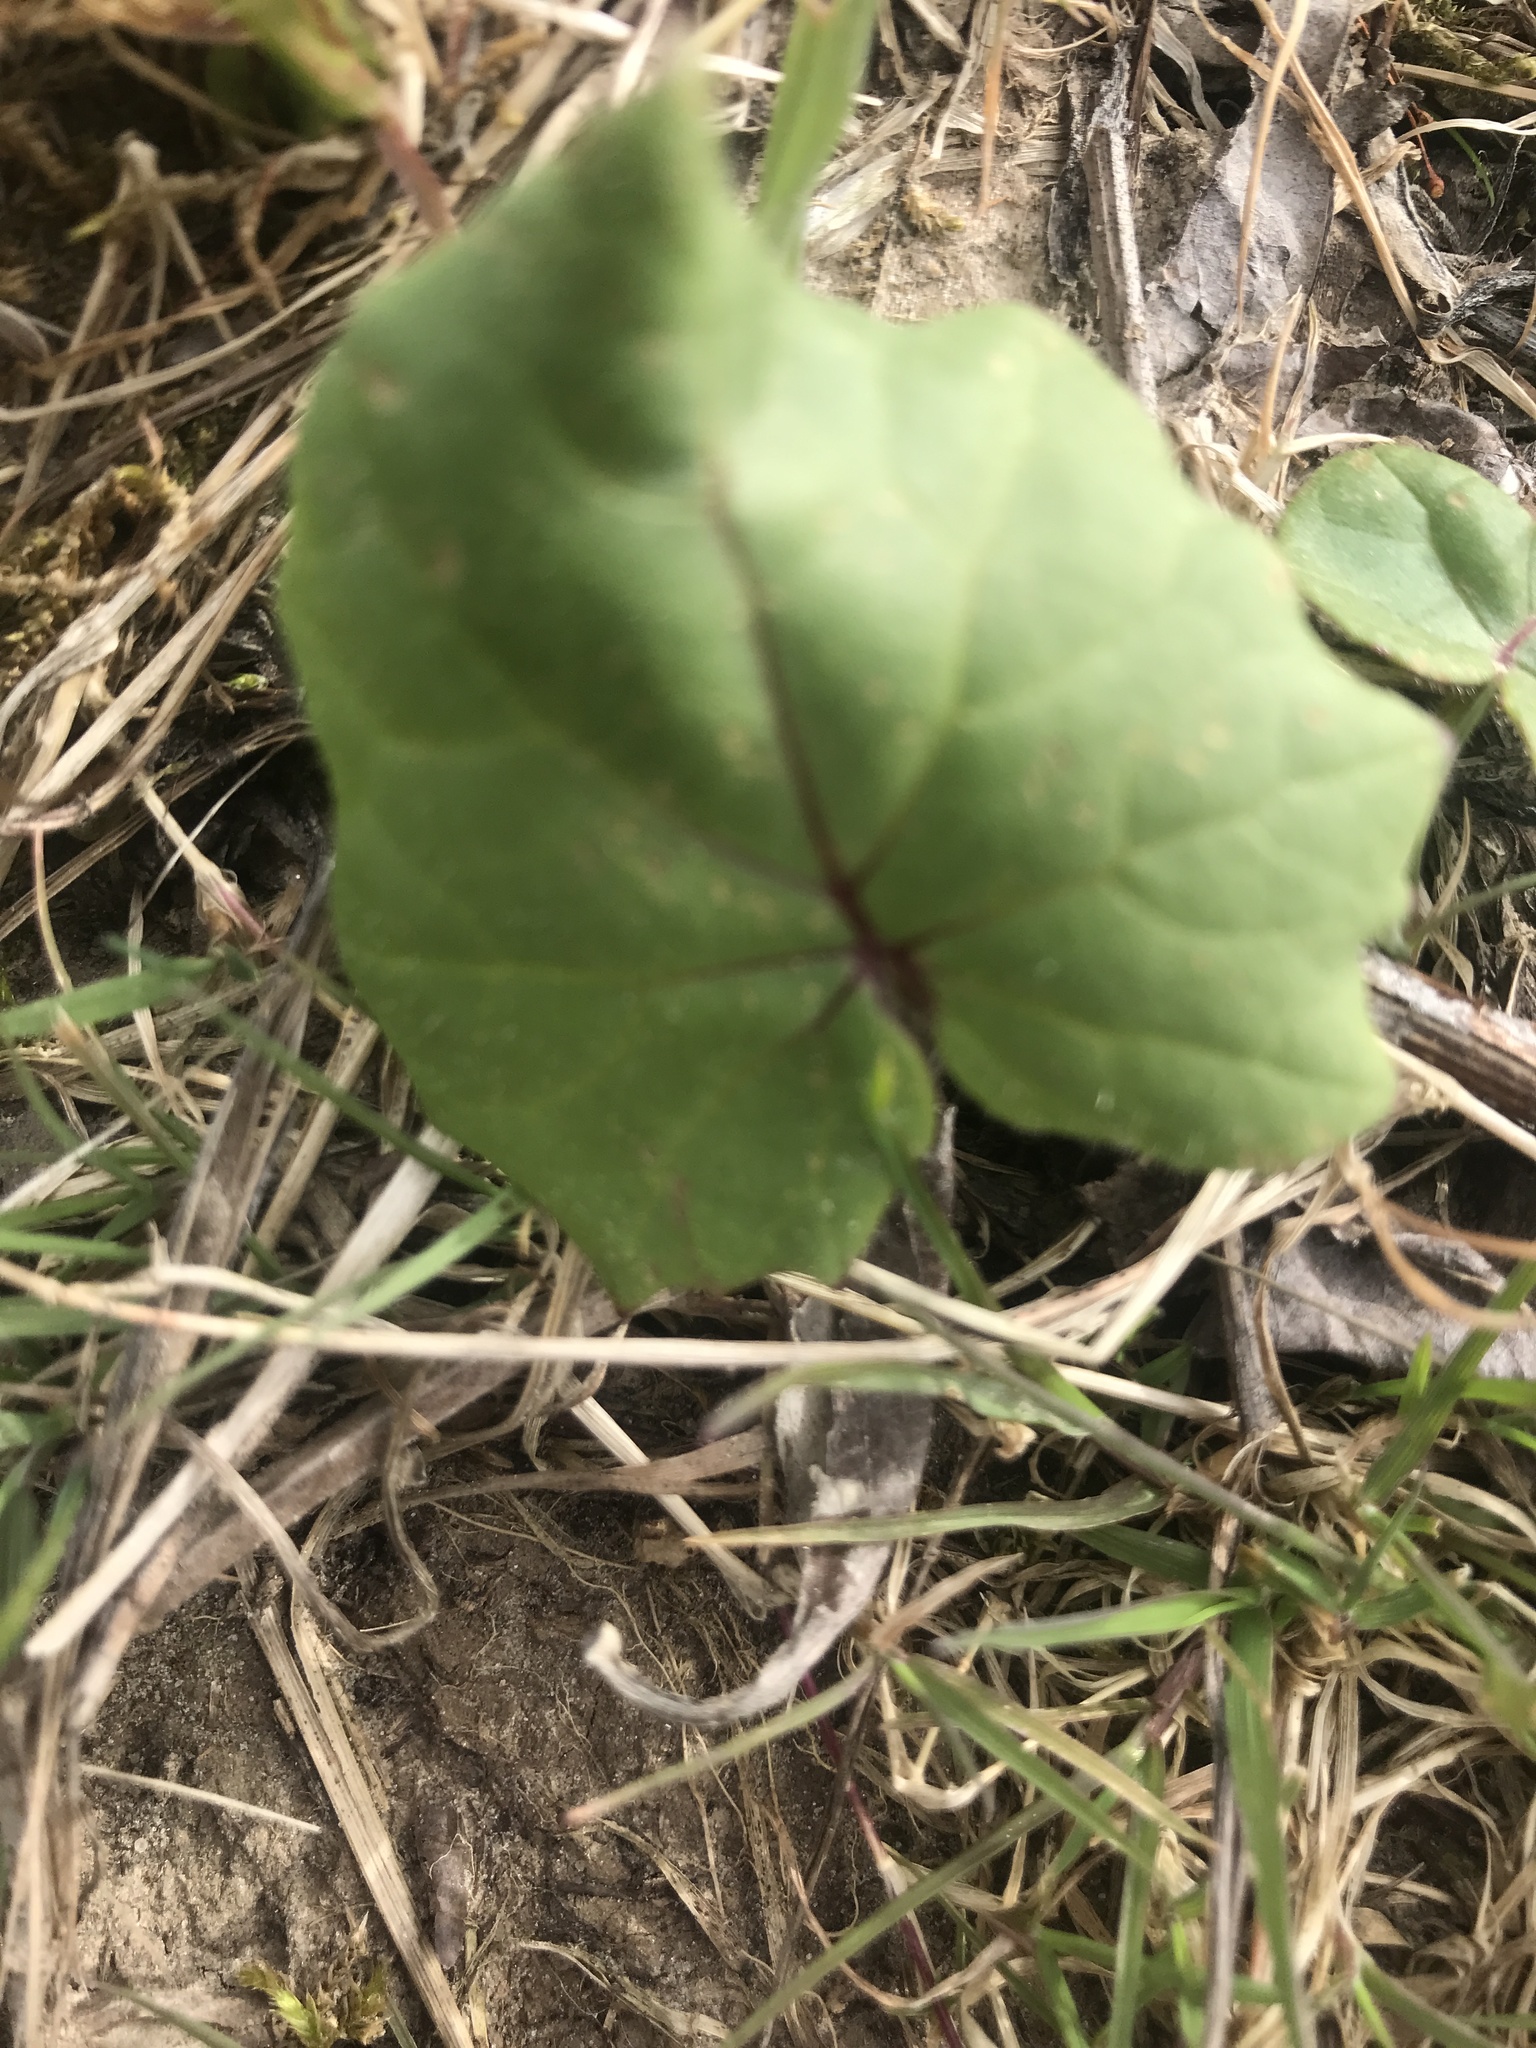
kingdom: Plantae
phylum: Tracheophyta
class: Magnoliopsida
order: Asterales
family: Asteraceae
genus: Tussilago
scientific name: Tussilago farfara
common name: Coltsfoot
